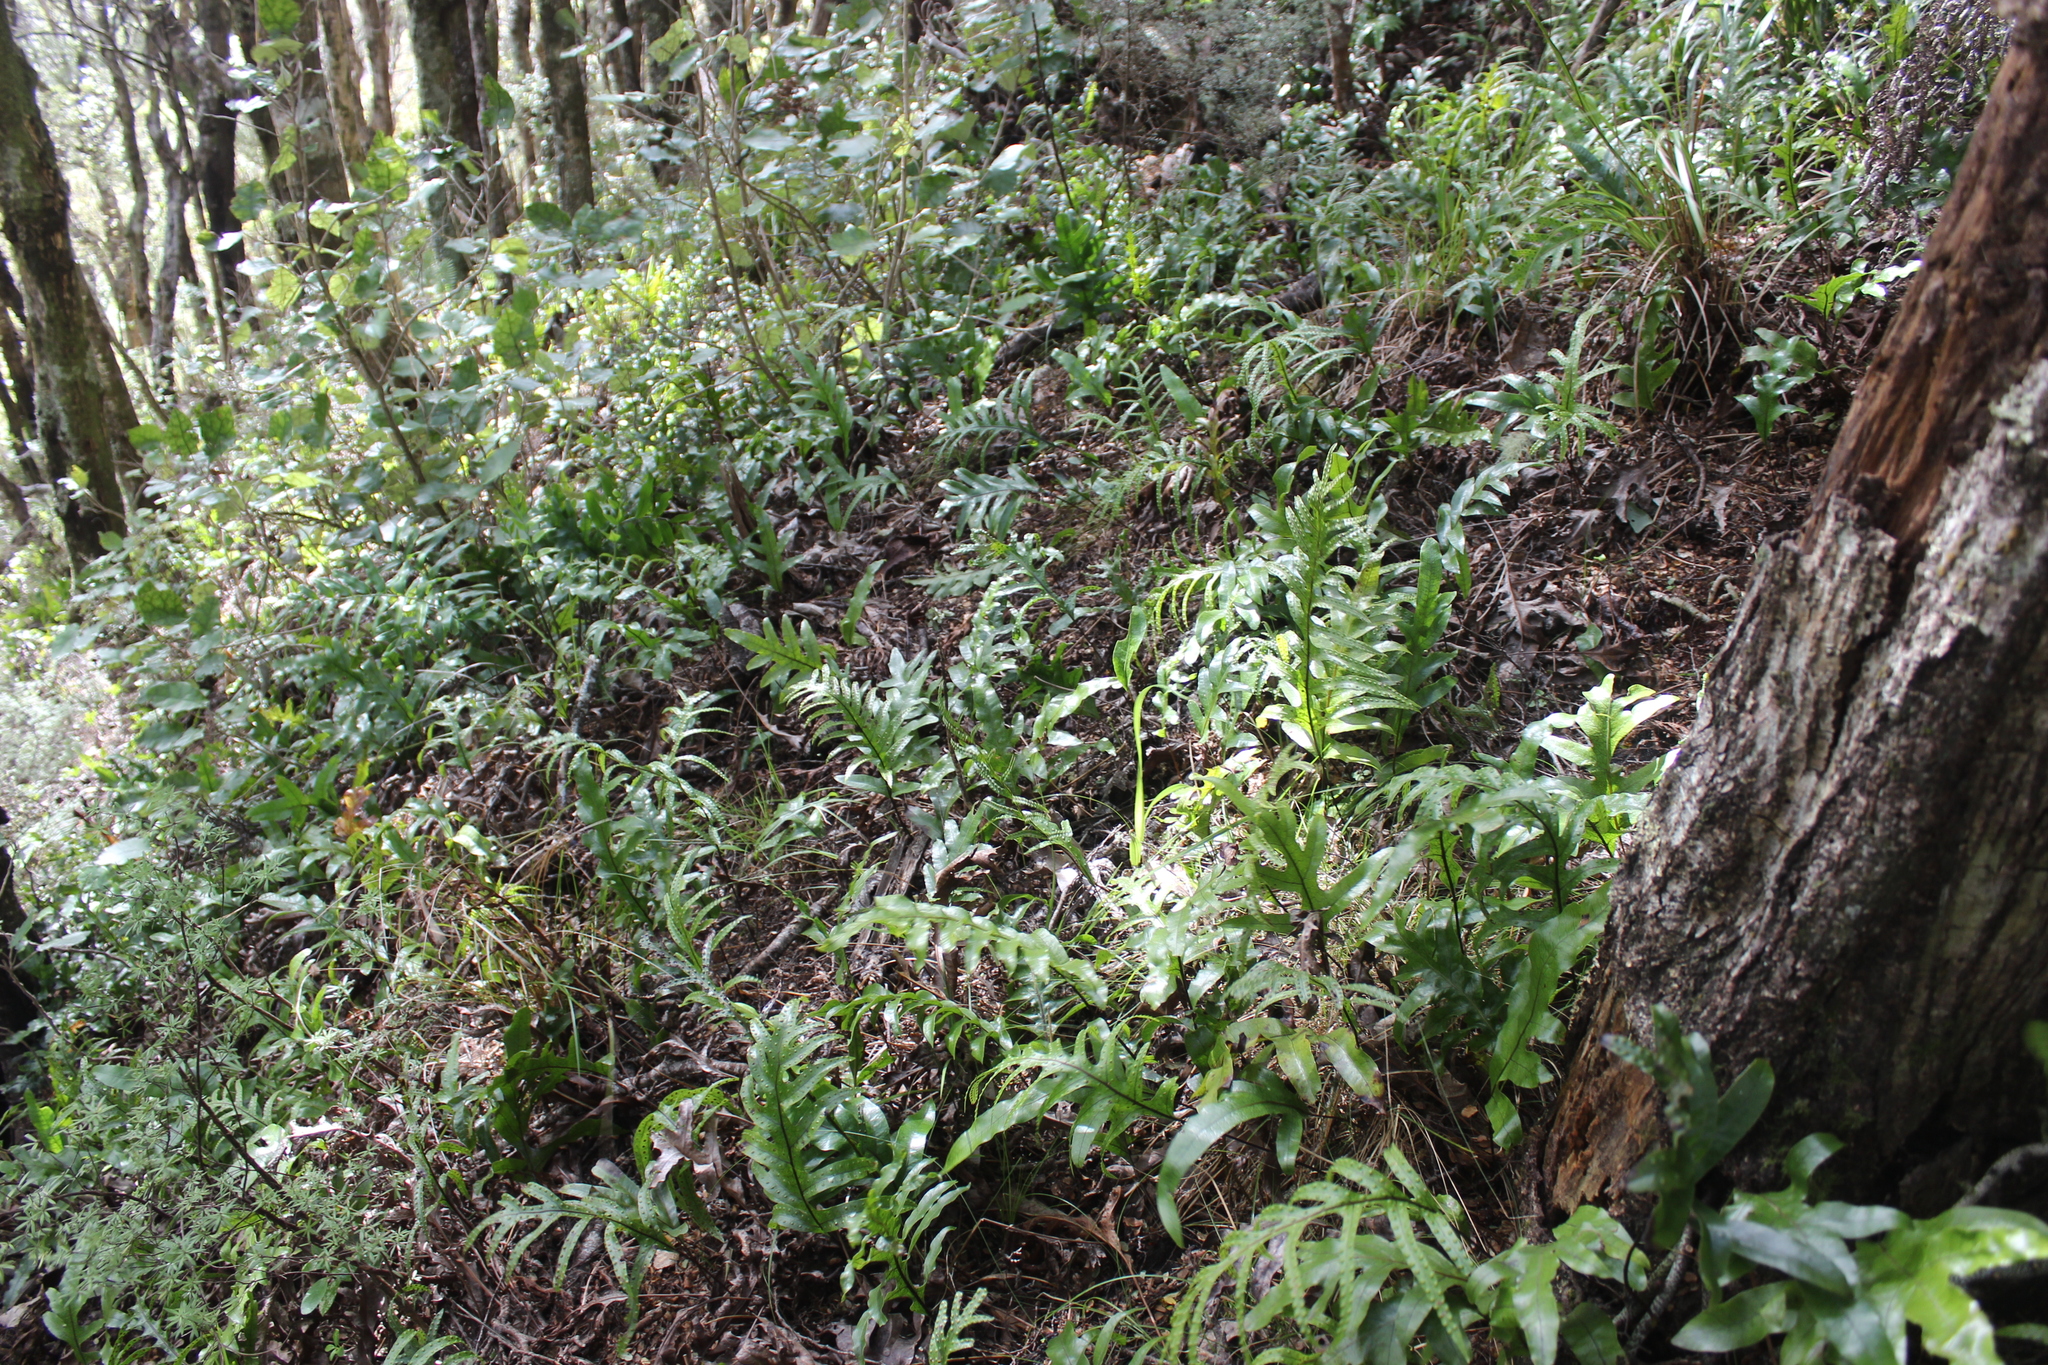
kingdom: Plantae
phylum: Tracheophyta
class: Polypodiopsida
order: Polypodiales
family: Polypodiaceae
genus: Lecanopteris
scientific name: Lecanopteris pustulata
